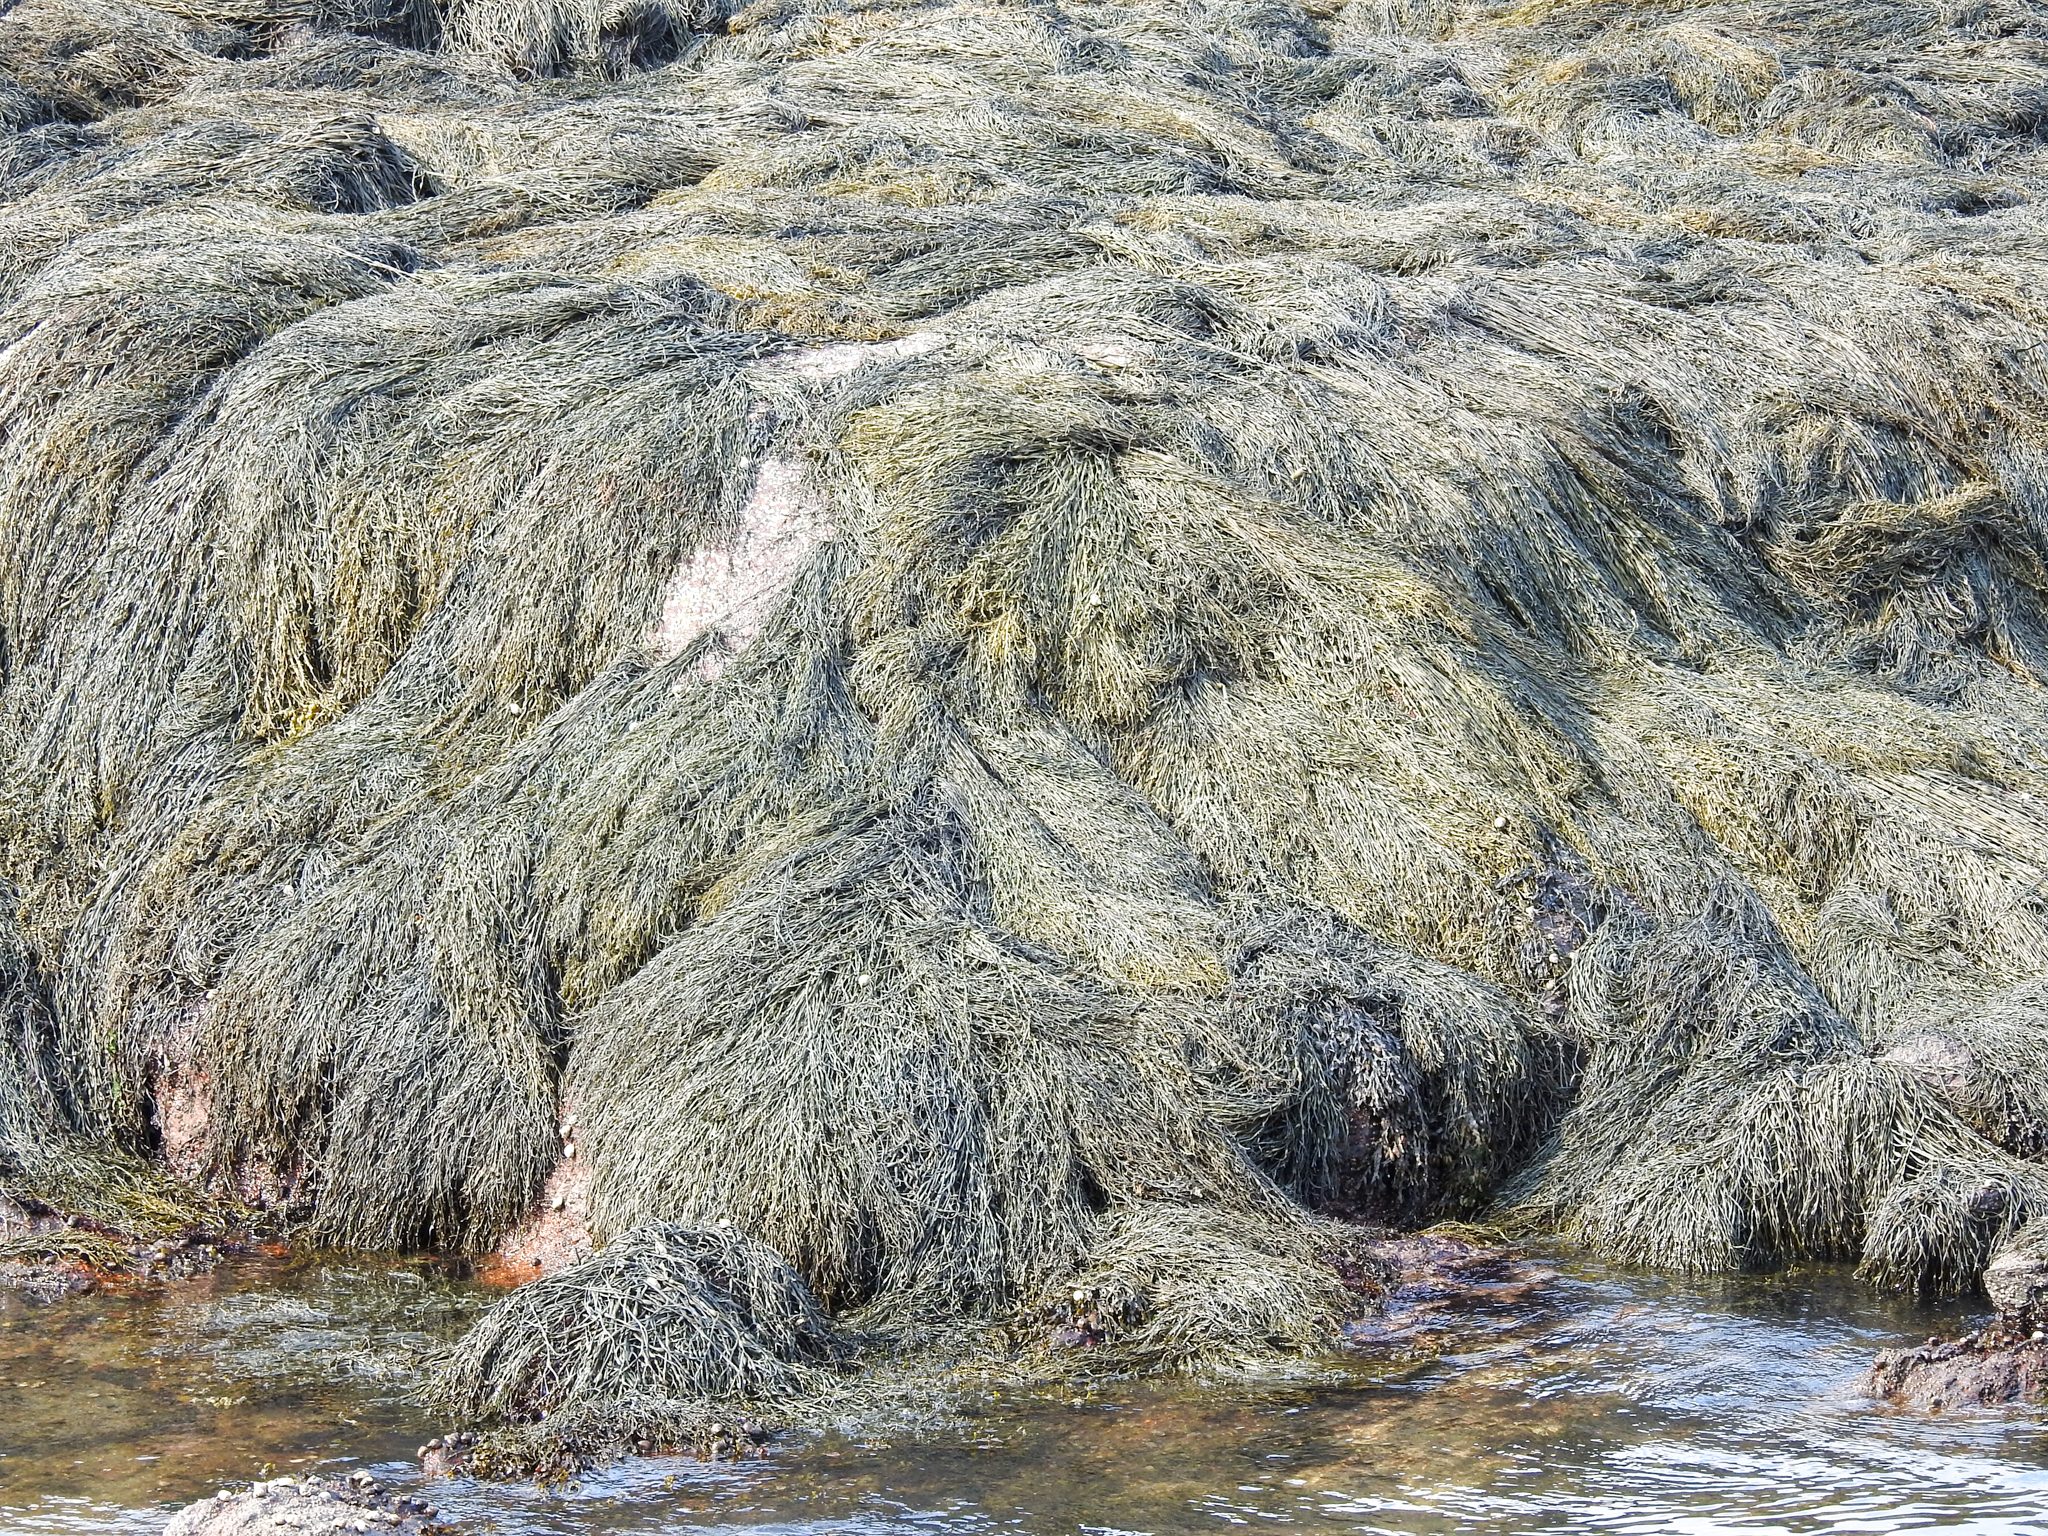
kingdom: Chromista
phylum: Ochrophyta
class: Phaeophyceae
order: Fucales
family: Fucaceae
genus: Ascophyllum
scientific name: Ascophyllum nodosum
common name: Knotted wrack
